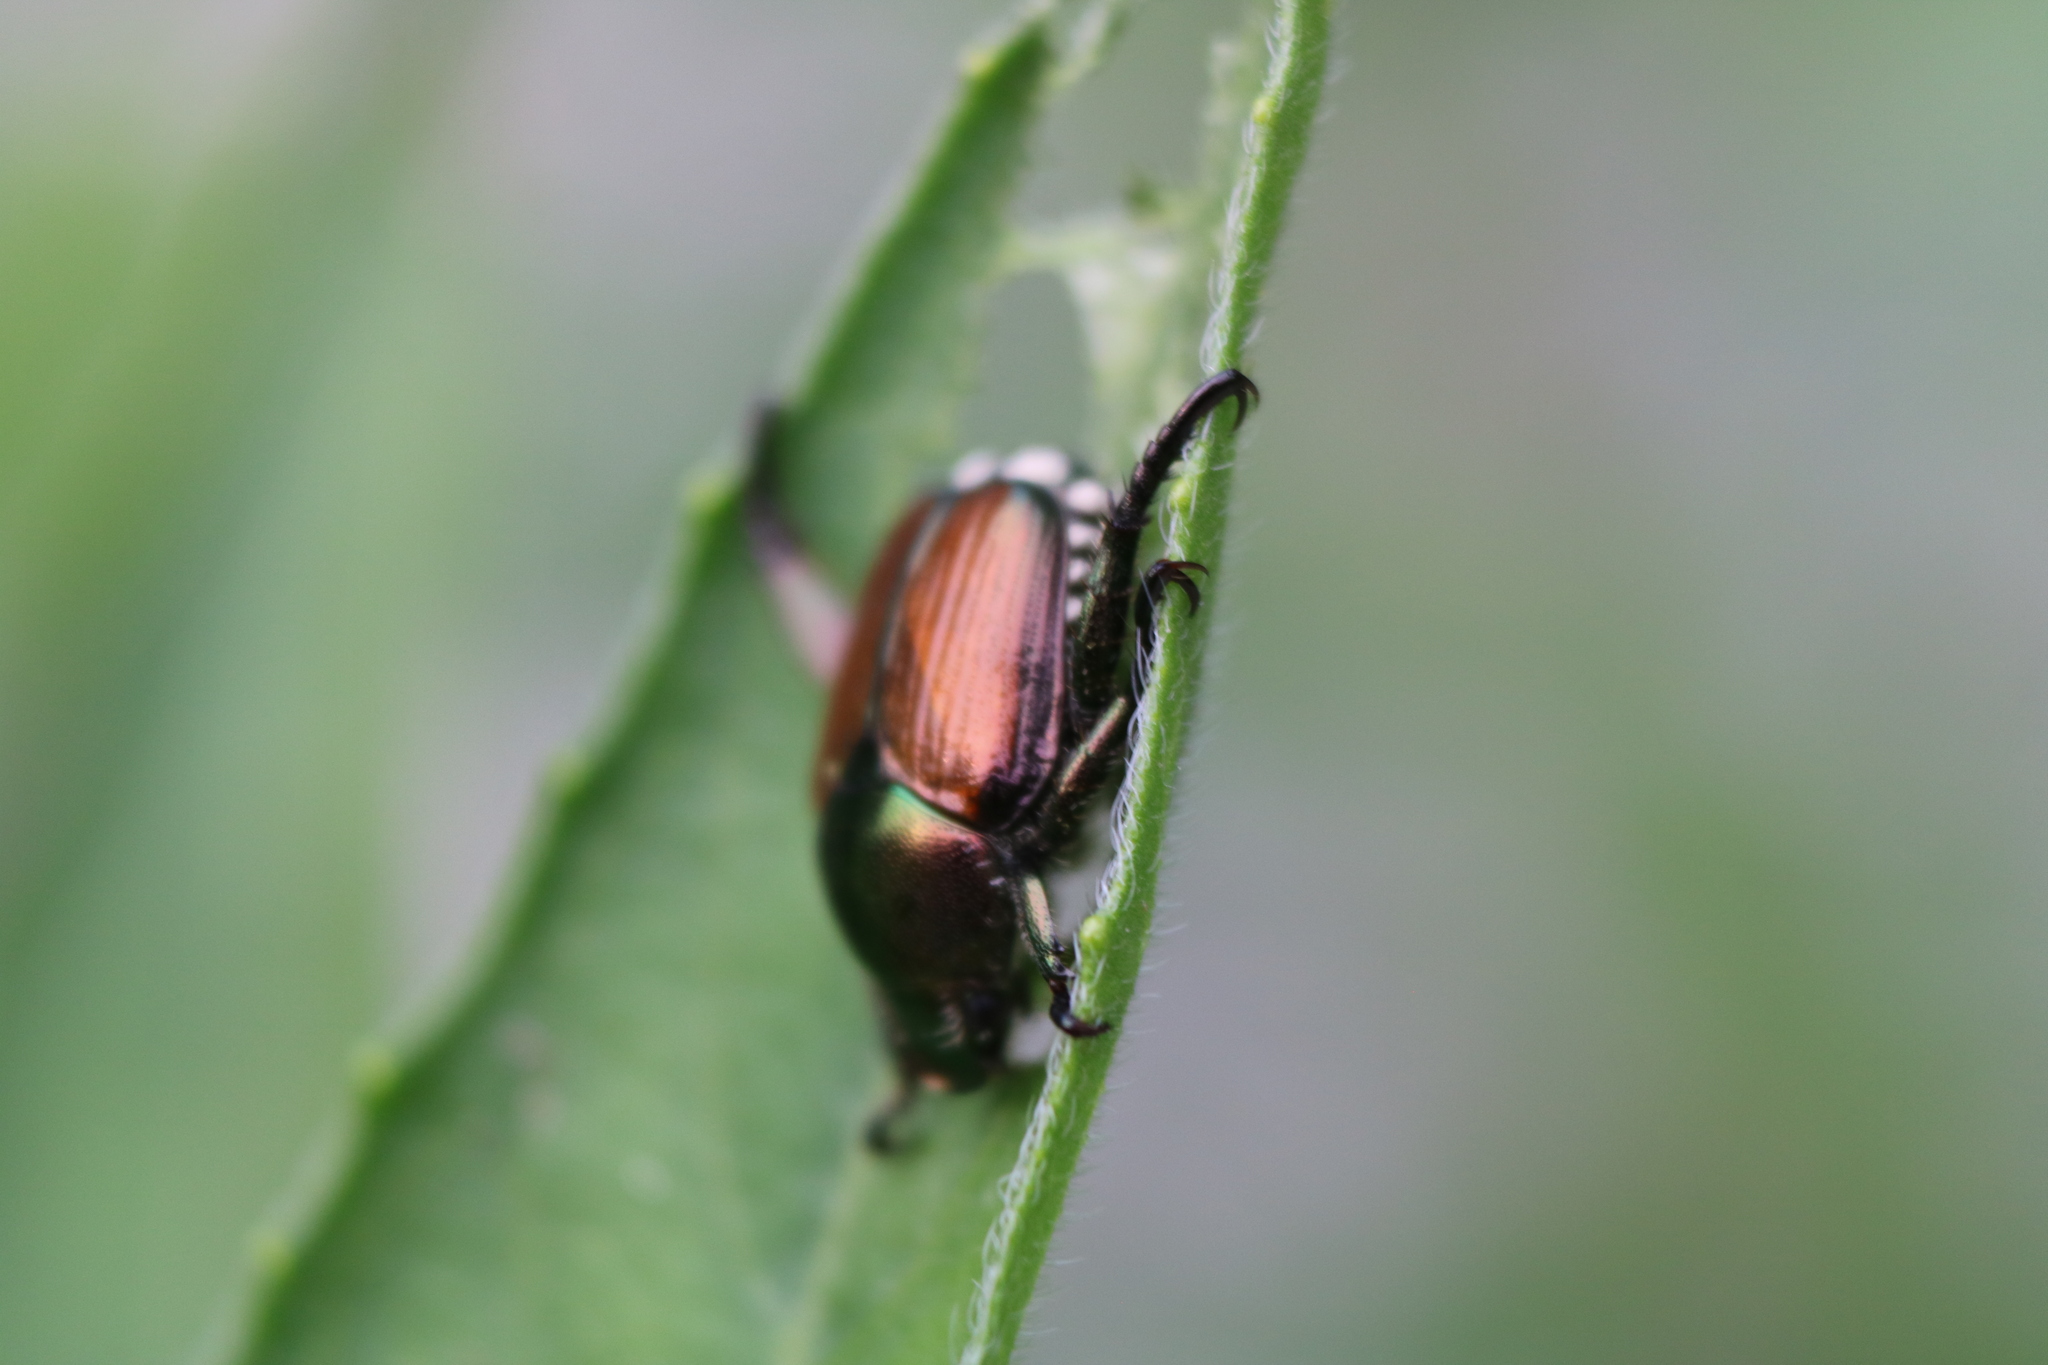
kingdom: Animalia
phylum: Arthropoda
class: Insecta
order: Coleoptera
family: Scarabaeidae
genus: Popillia
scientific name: Popillia japonica
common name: Japanese beetle
